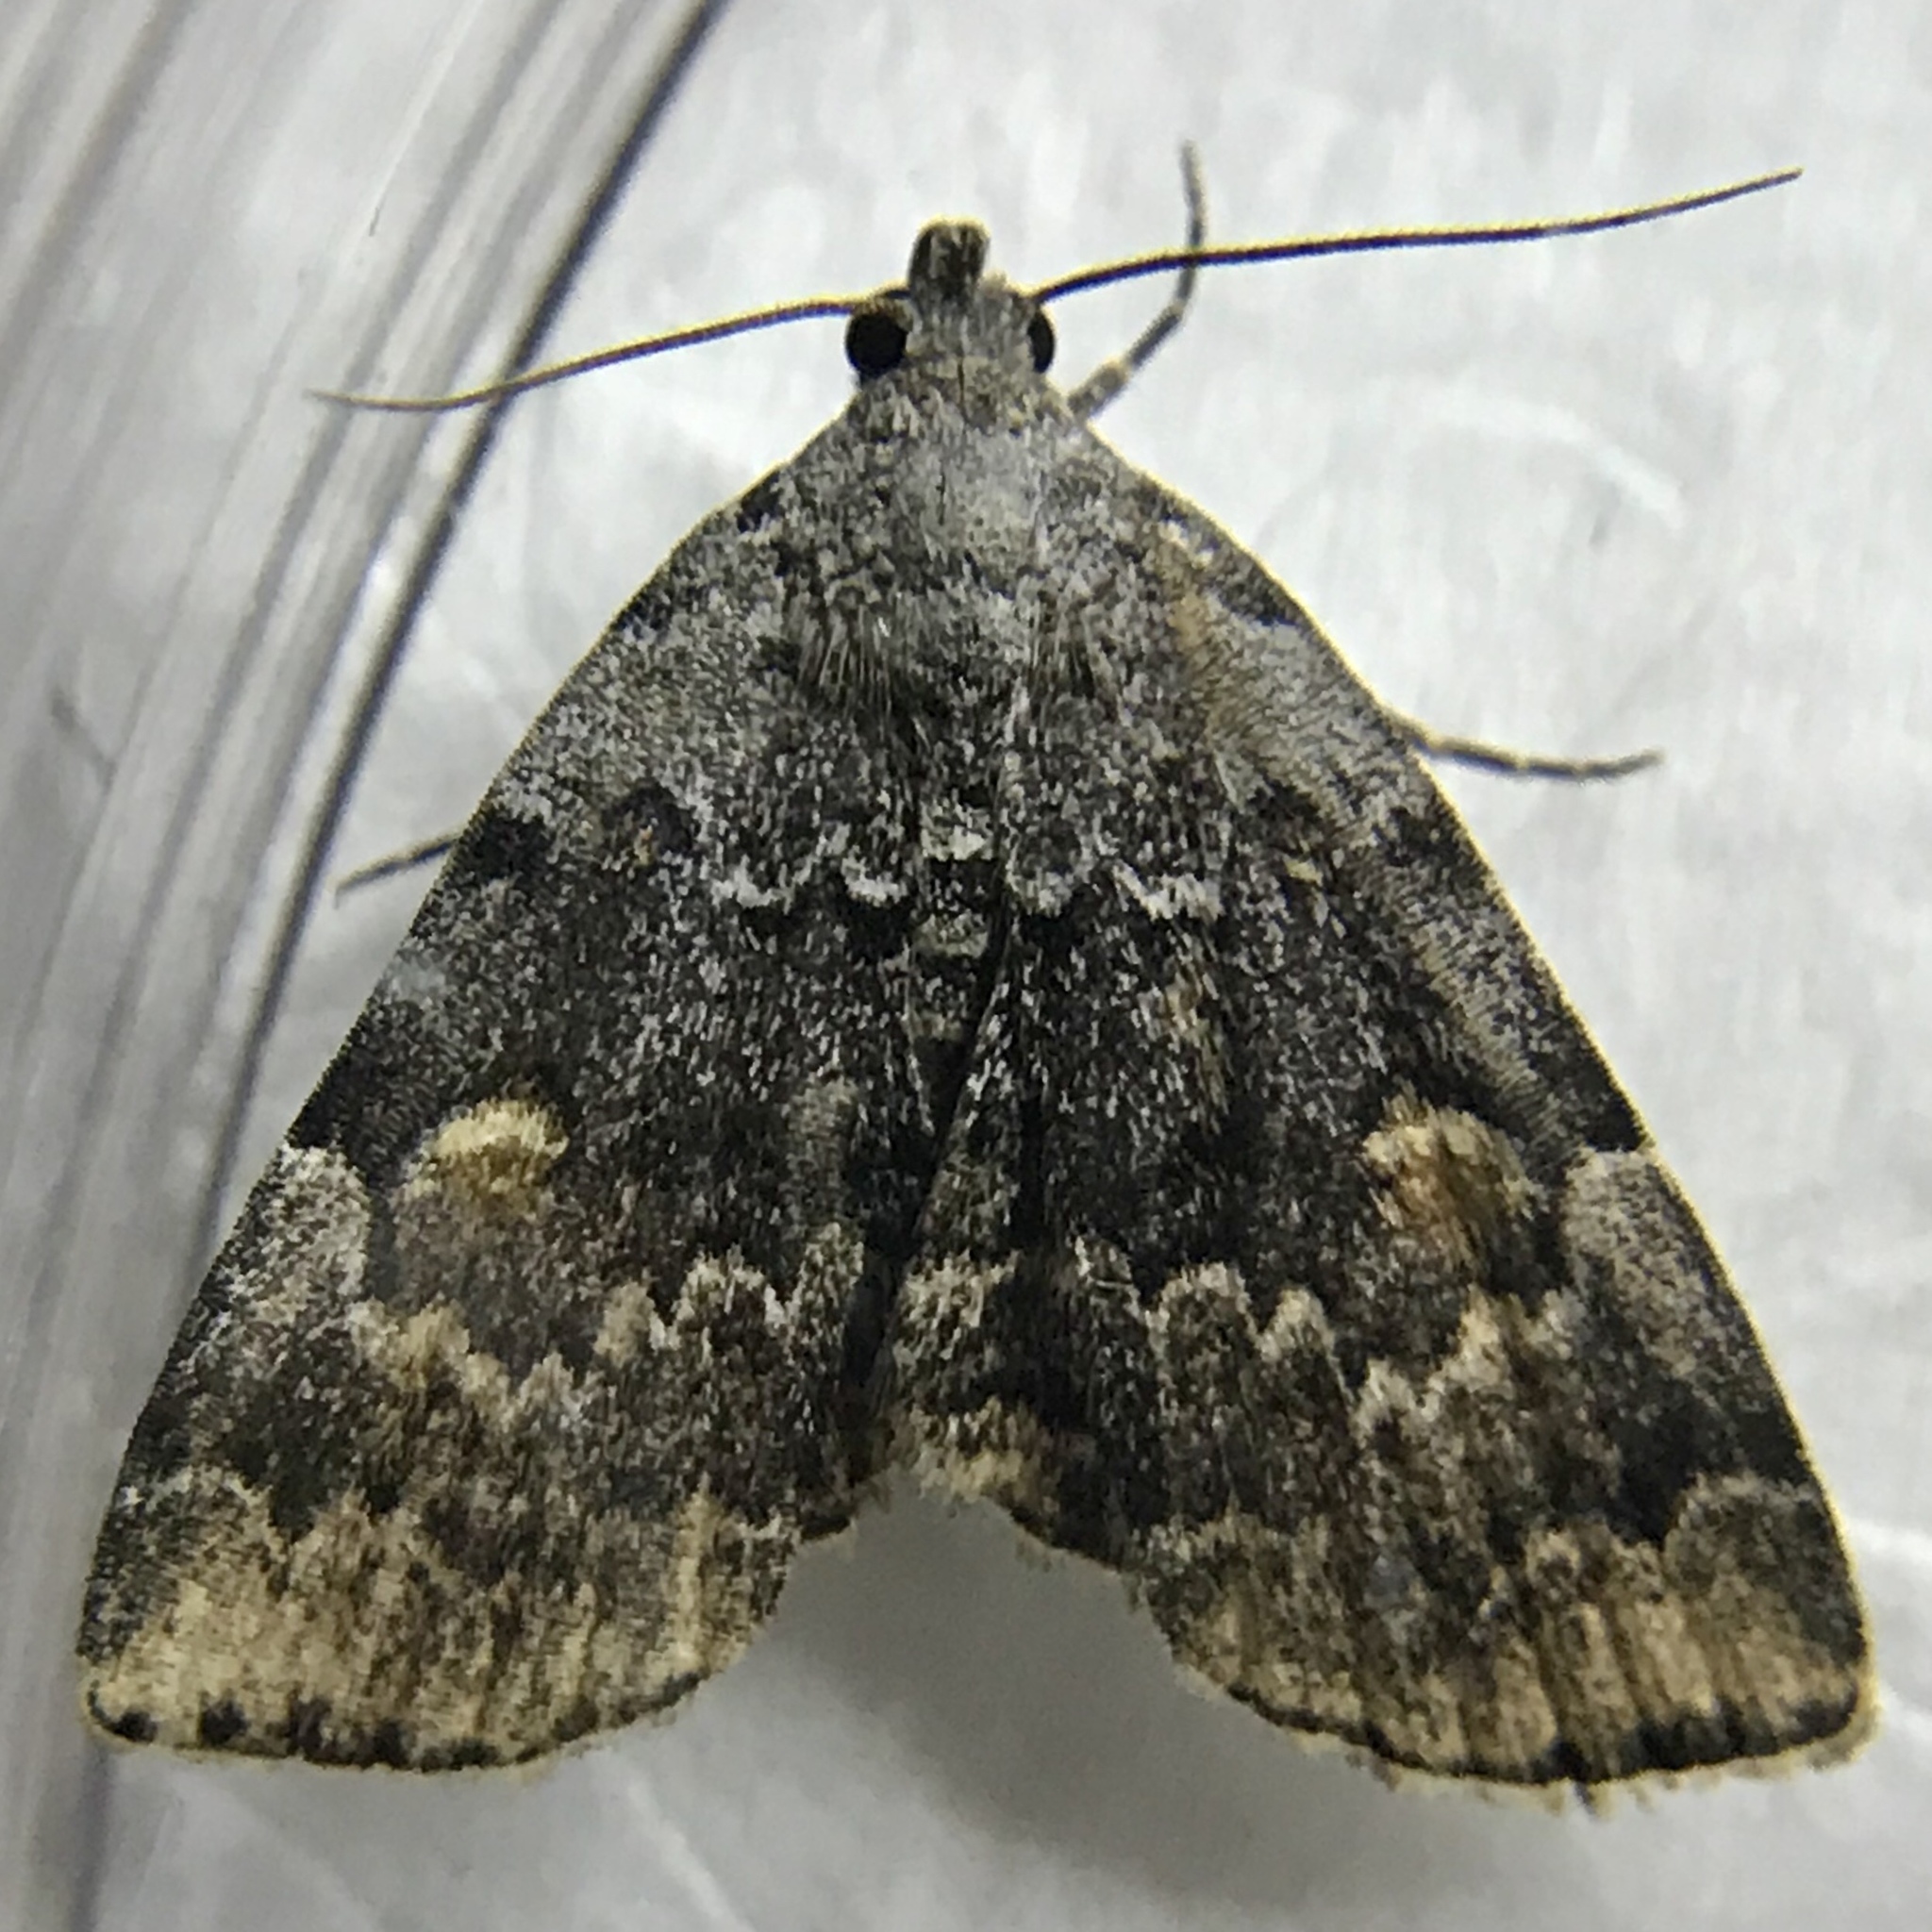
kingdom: Animalia
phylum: Arthropoda
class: Insecta
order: Lepidoptera
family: Erebidae
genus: Idia
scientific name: Idia americalis
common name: American idia moth
